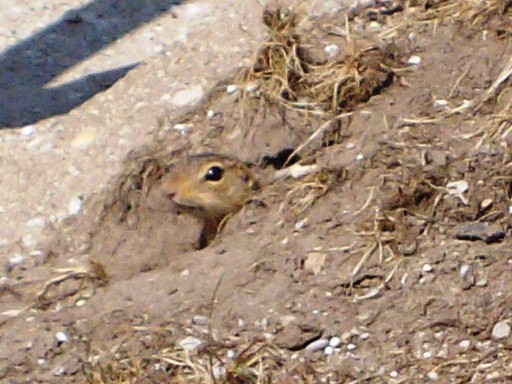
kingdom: Animalia
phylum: Chordata
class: Mammalia
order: Rodentia
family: Sciuridae
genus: Ictidomys
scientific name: Ictidomys tridecemlineatus
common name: Thirteen-lined ground squirrel
